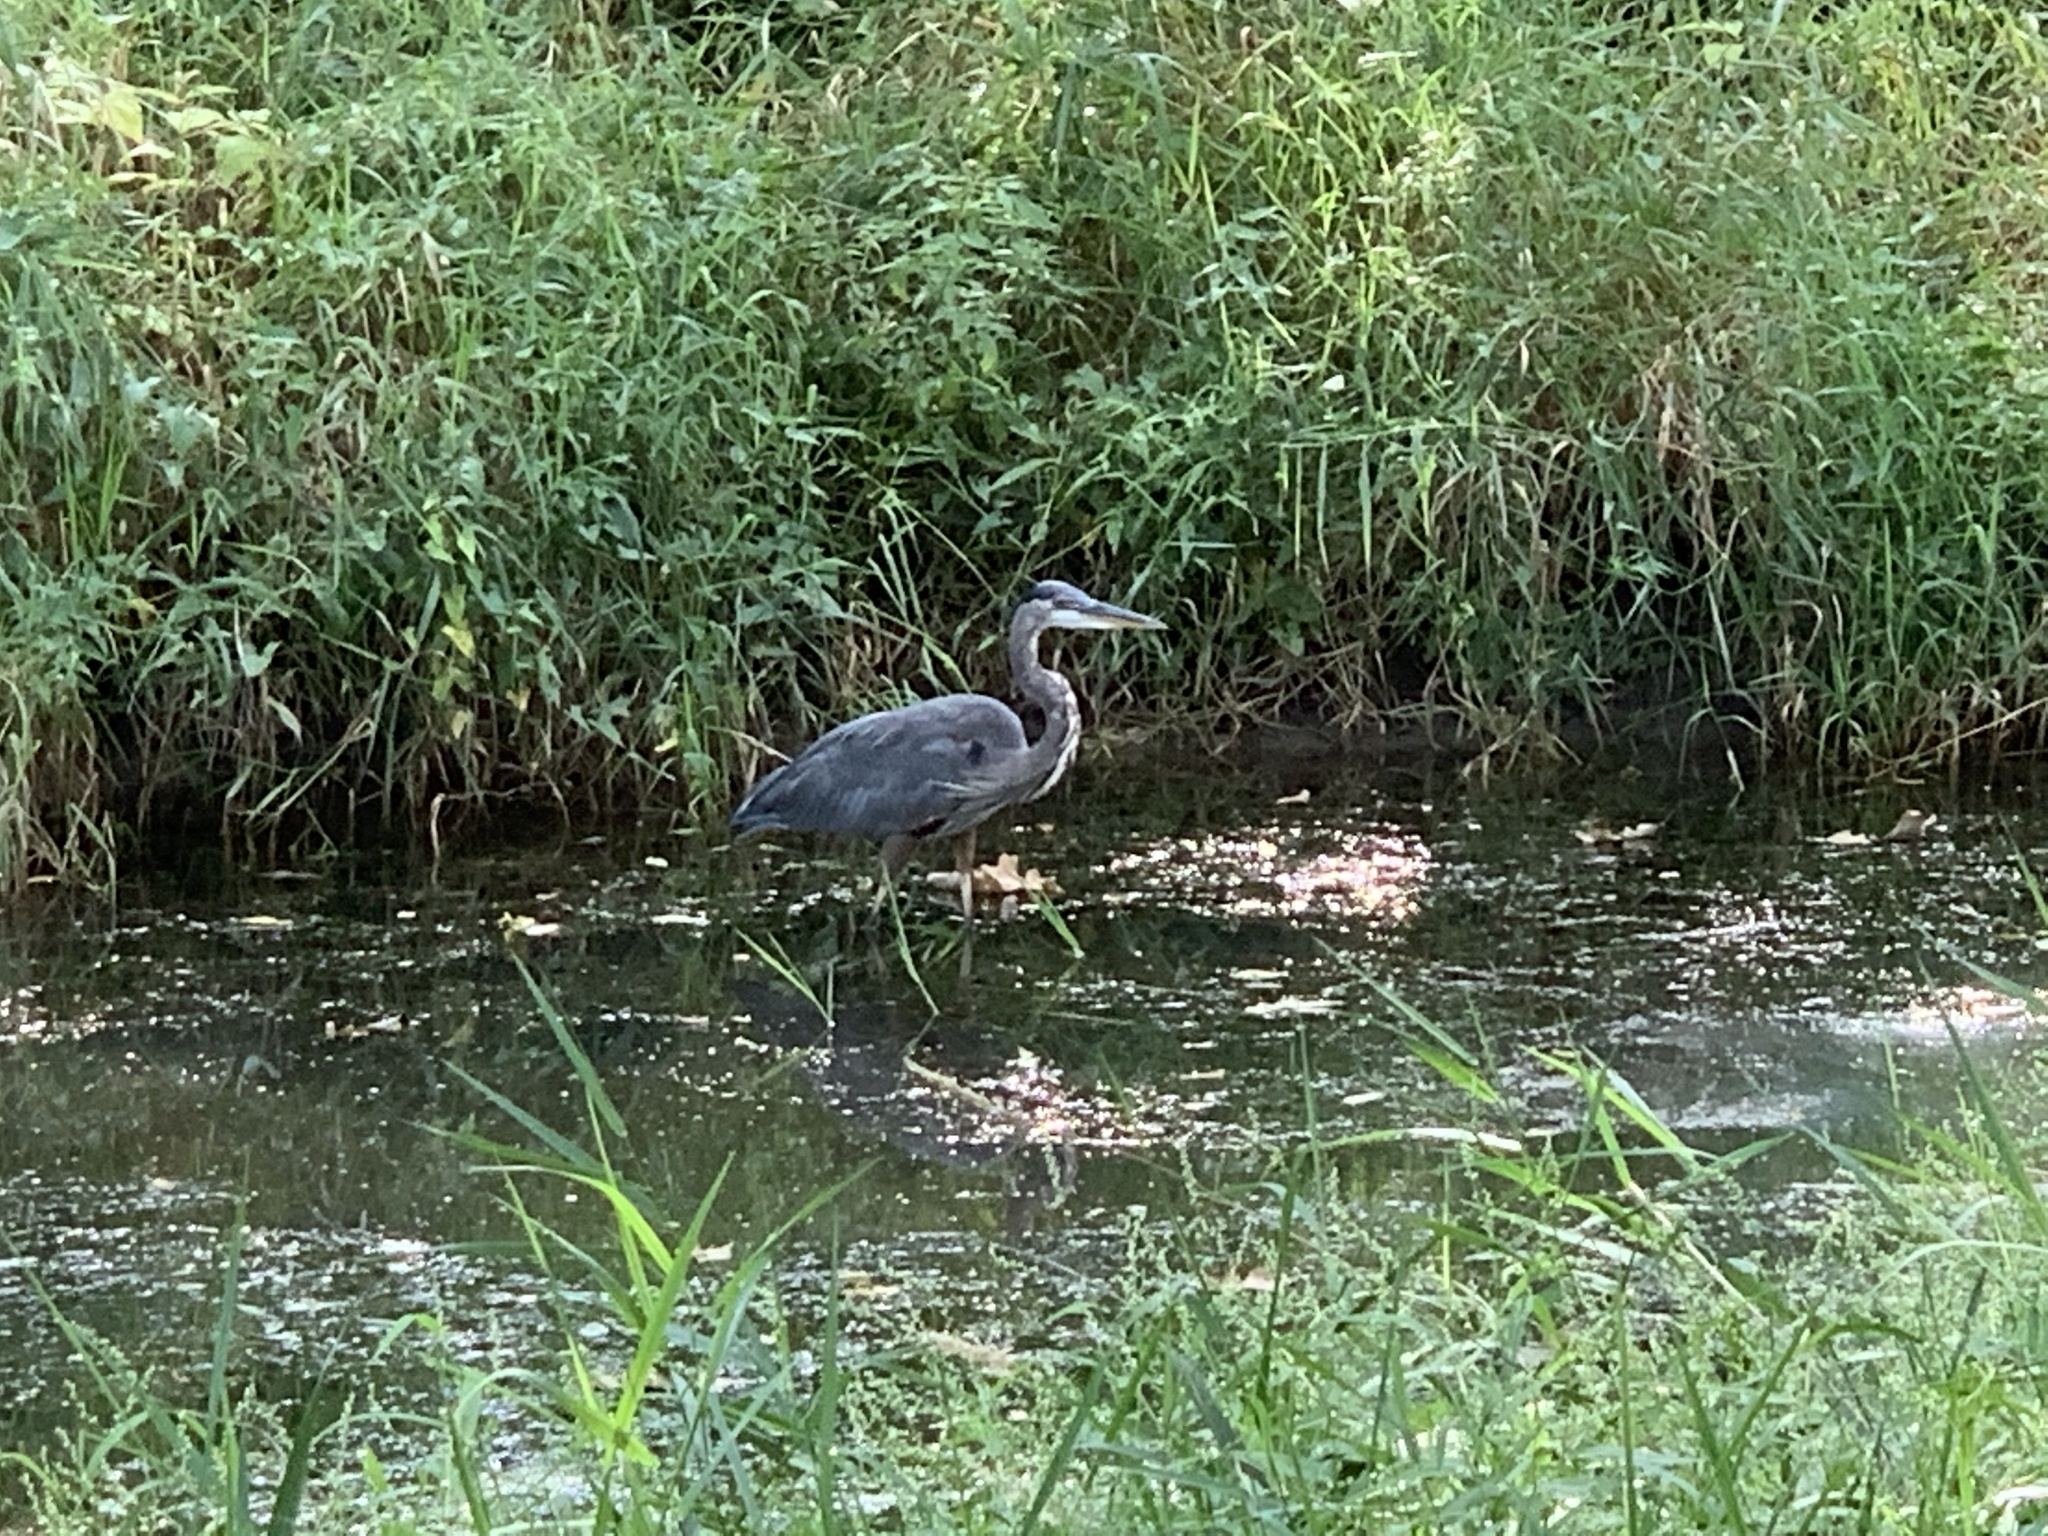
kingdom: Animalia
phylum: Chordata
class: Aves
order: Pelecaniformes
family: Ardeidae
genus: Ardea
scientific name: Ardea herodias
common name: Great blue heron
